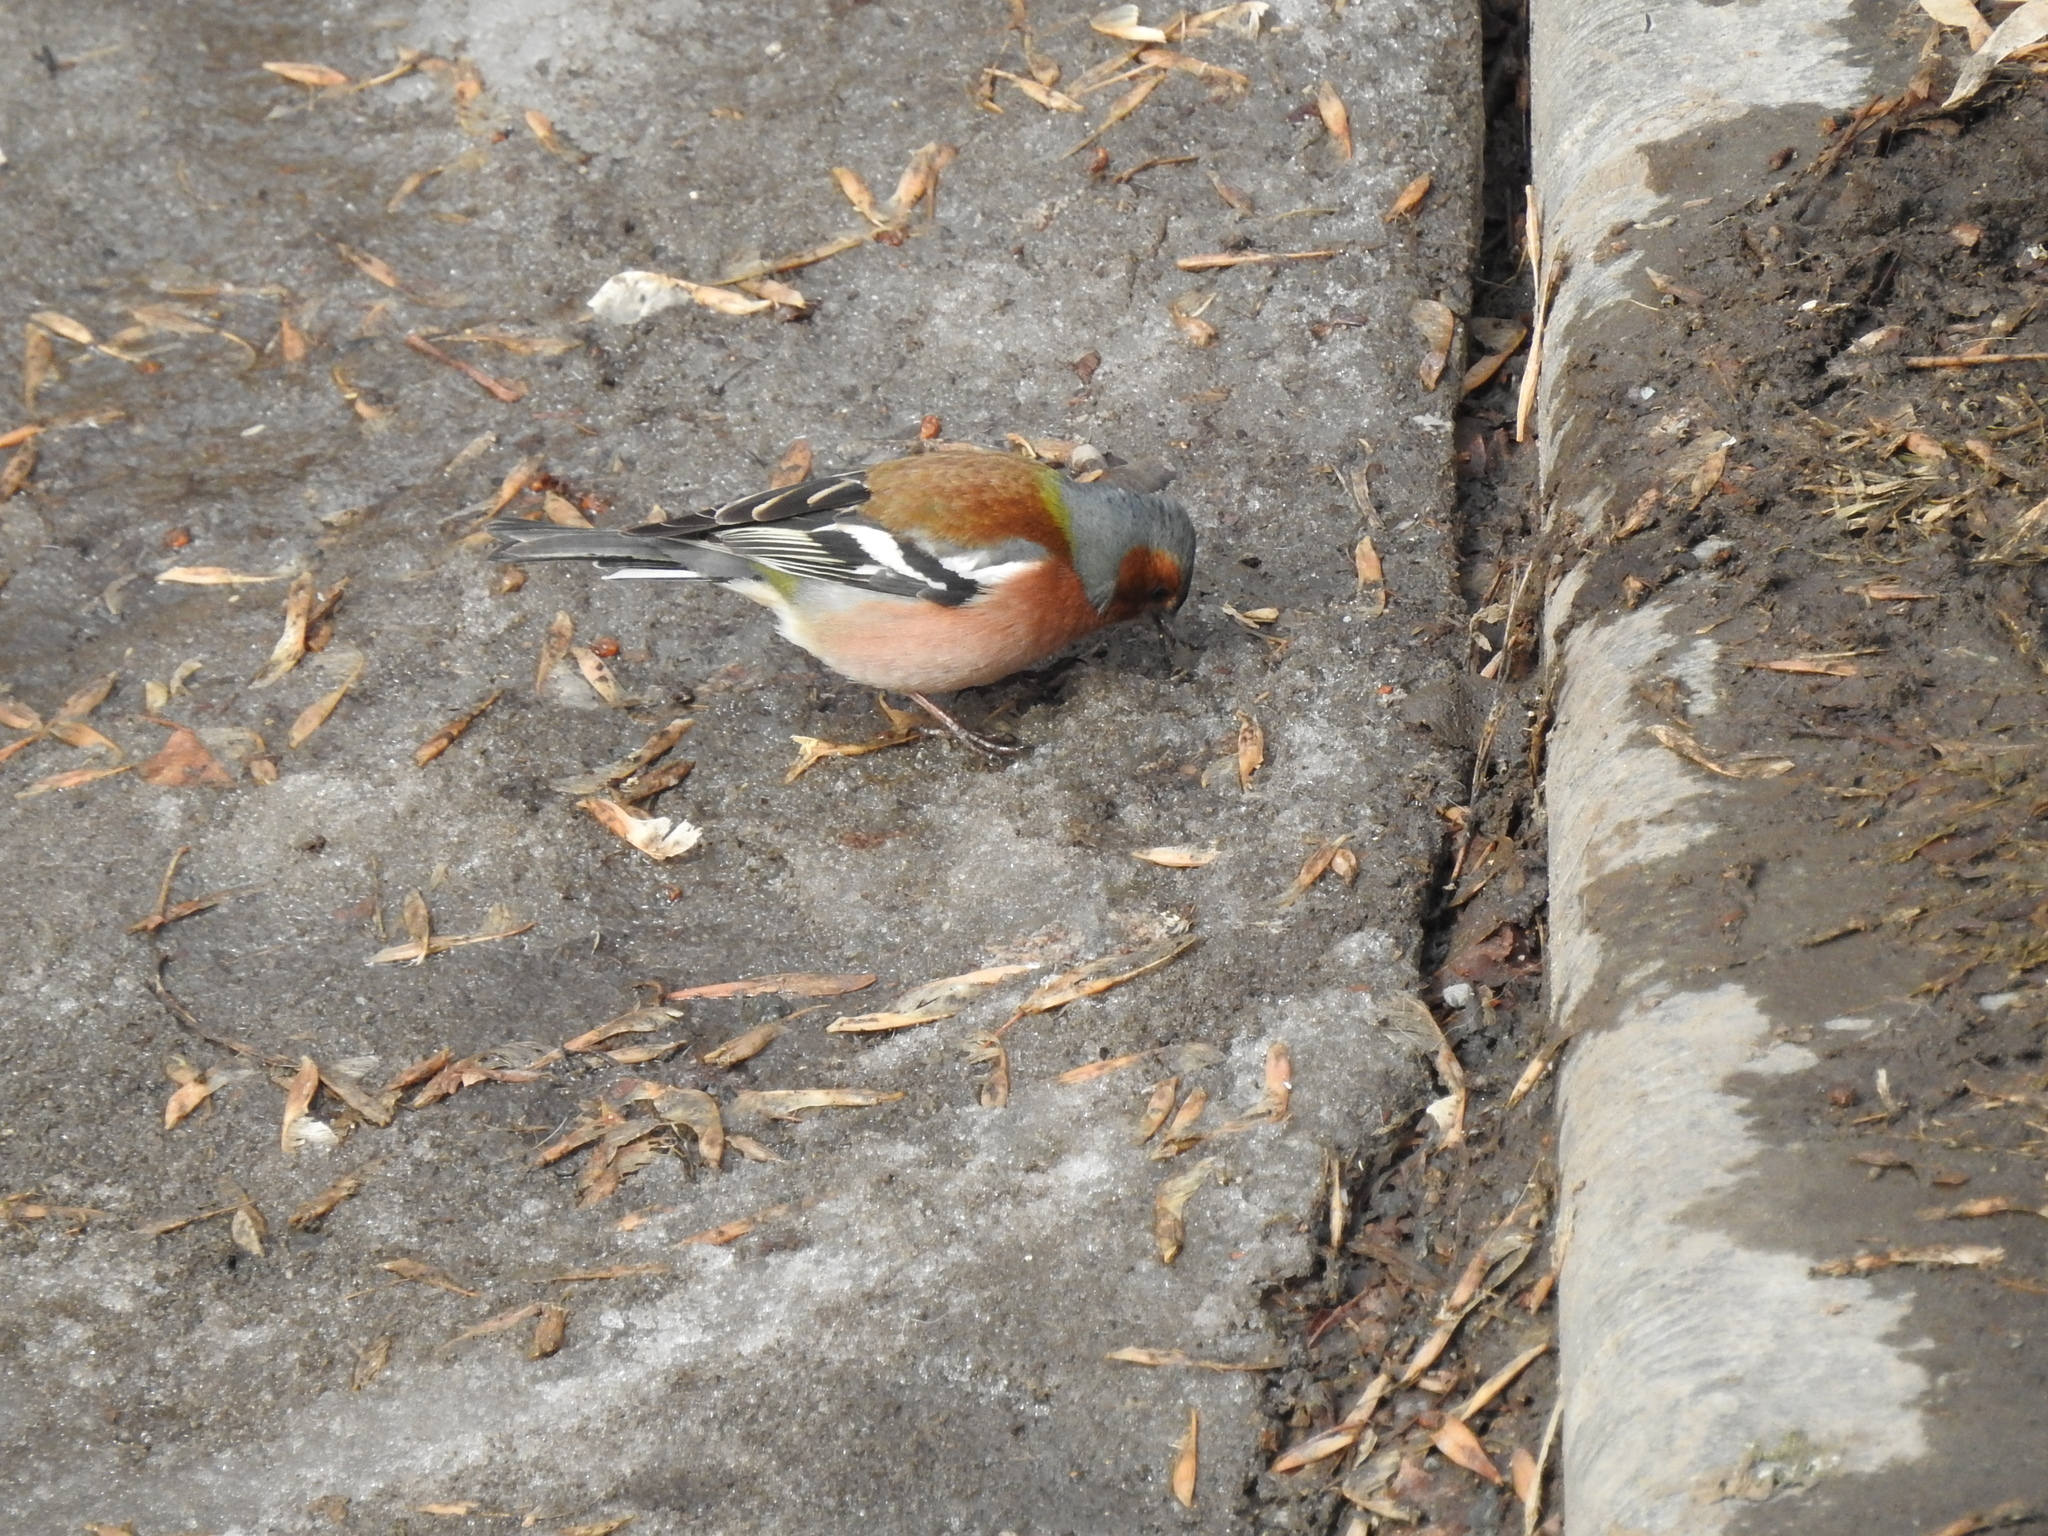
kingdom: Animalia
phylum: Chordata
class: Aves
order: Passeriformes
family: Fringillidae
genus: Fringilla
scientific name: Fringilla coelebs
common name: Common chaffinch
